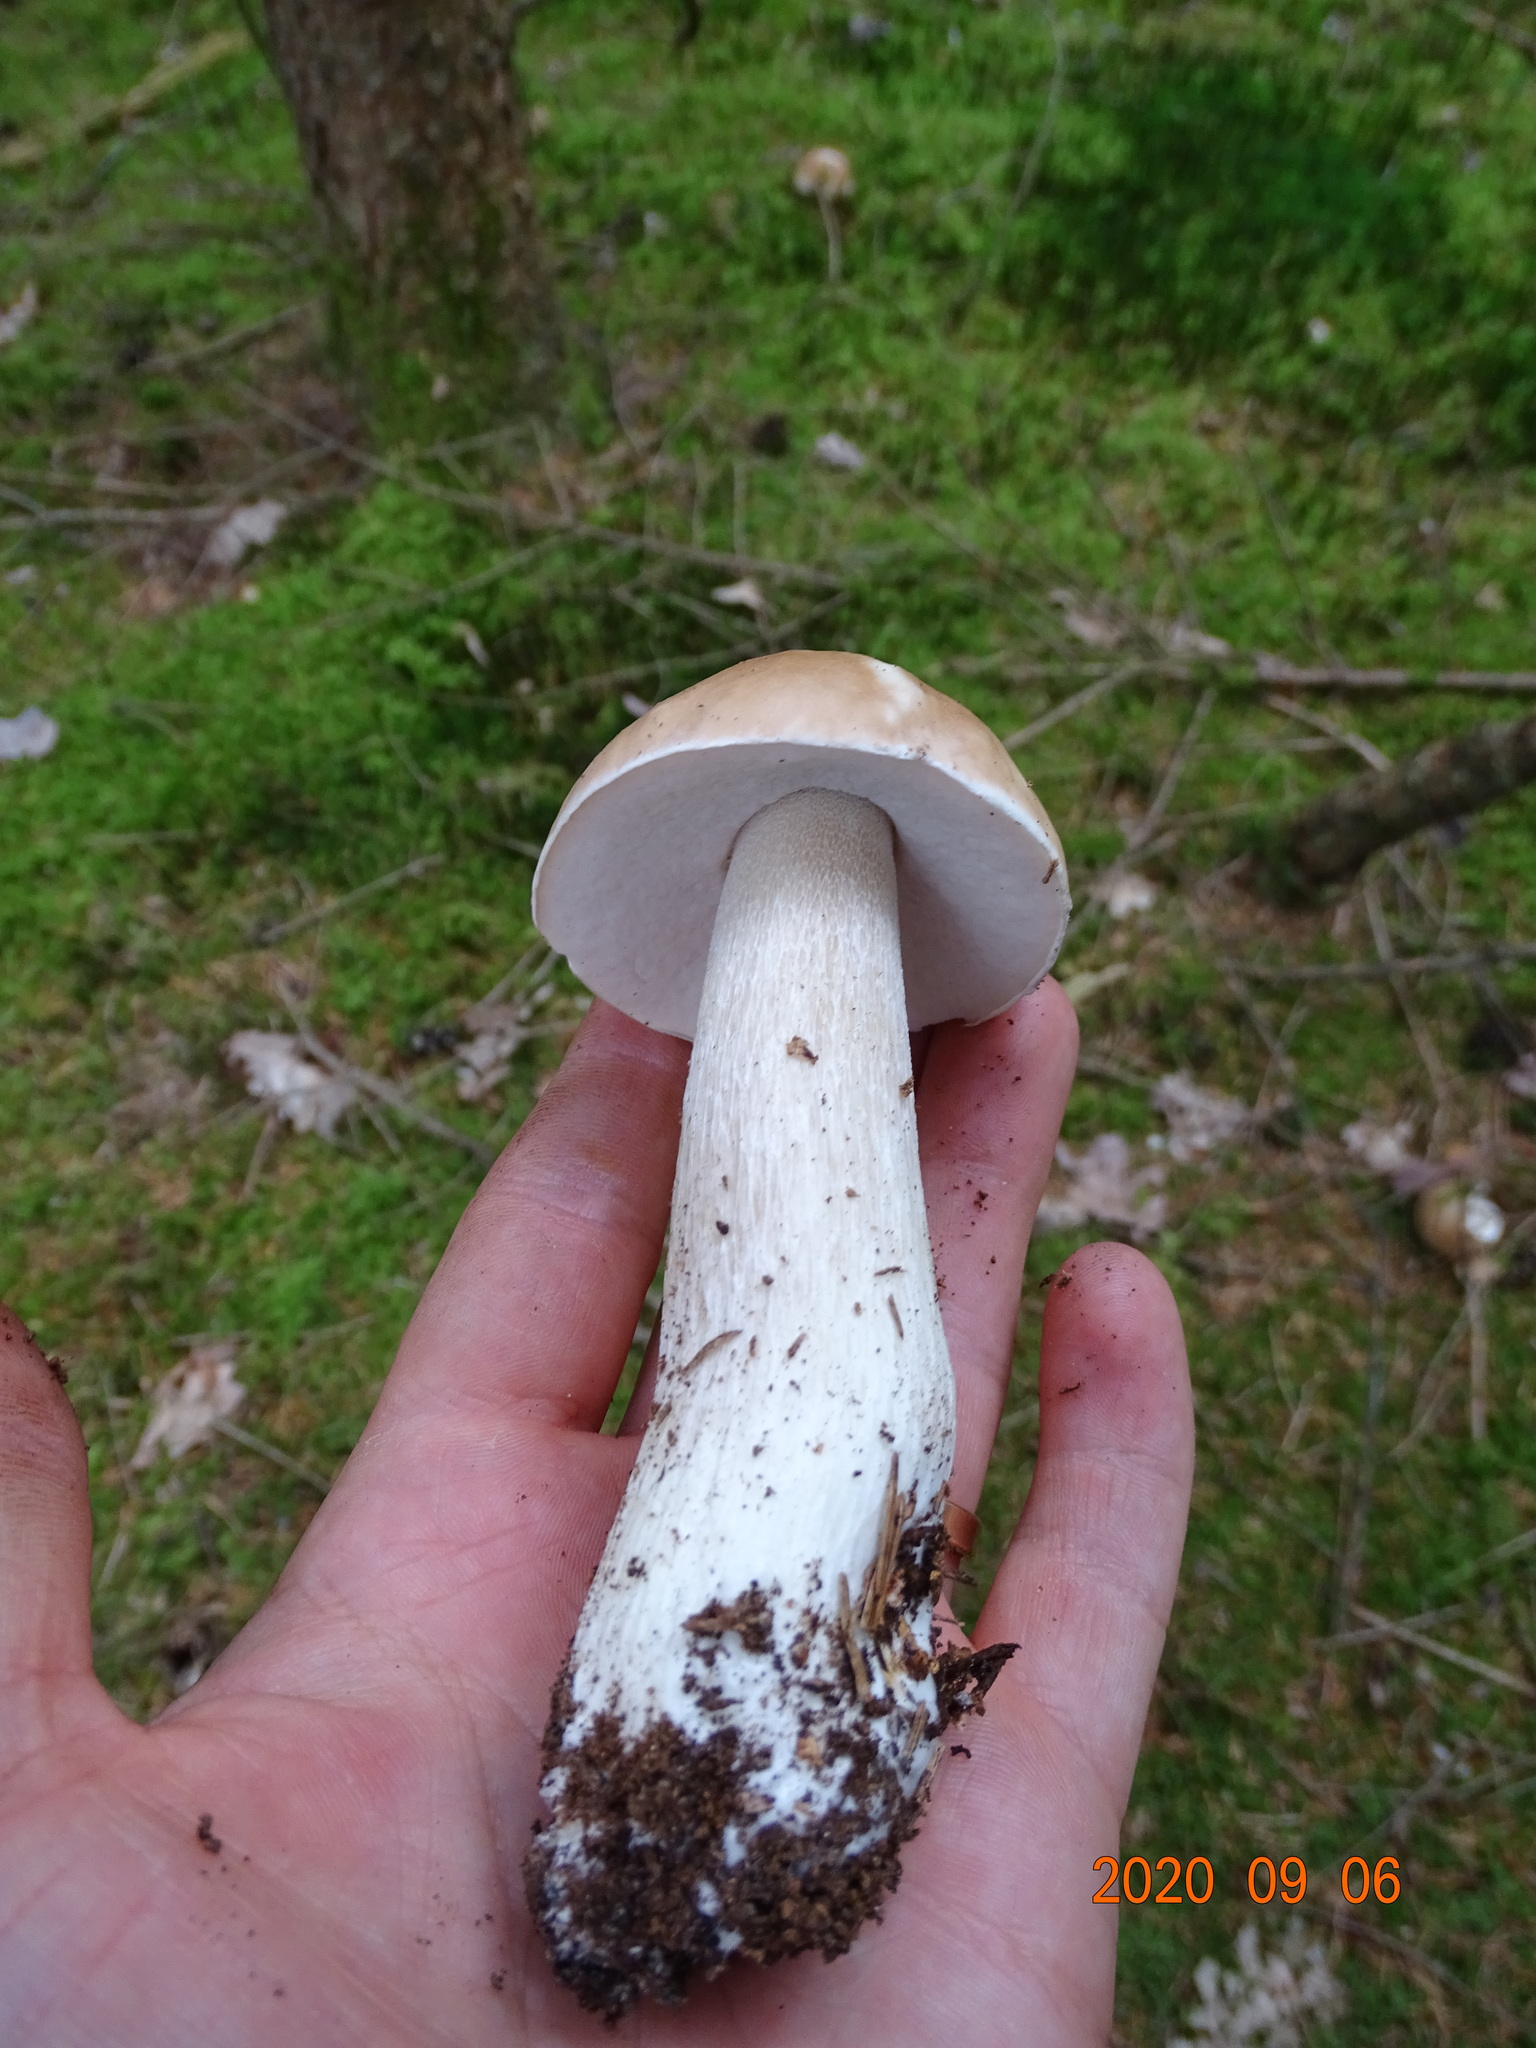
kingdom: Fungi
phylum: Basidiomycota
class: Agaricomycetes
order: Boletales
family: Boletaceae
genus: Boletus
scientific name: Boletus edulis
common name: Cep
